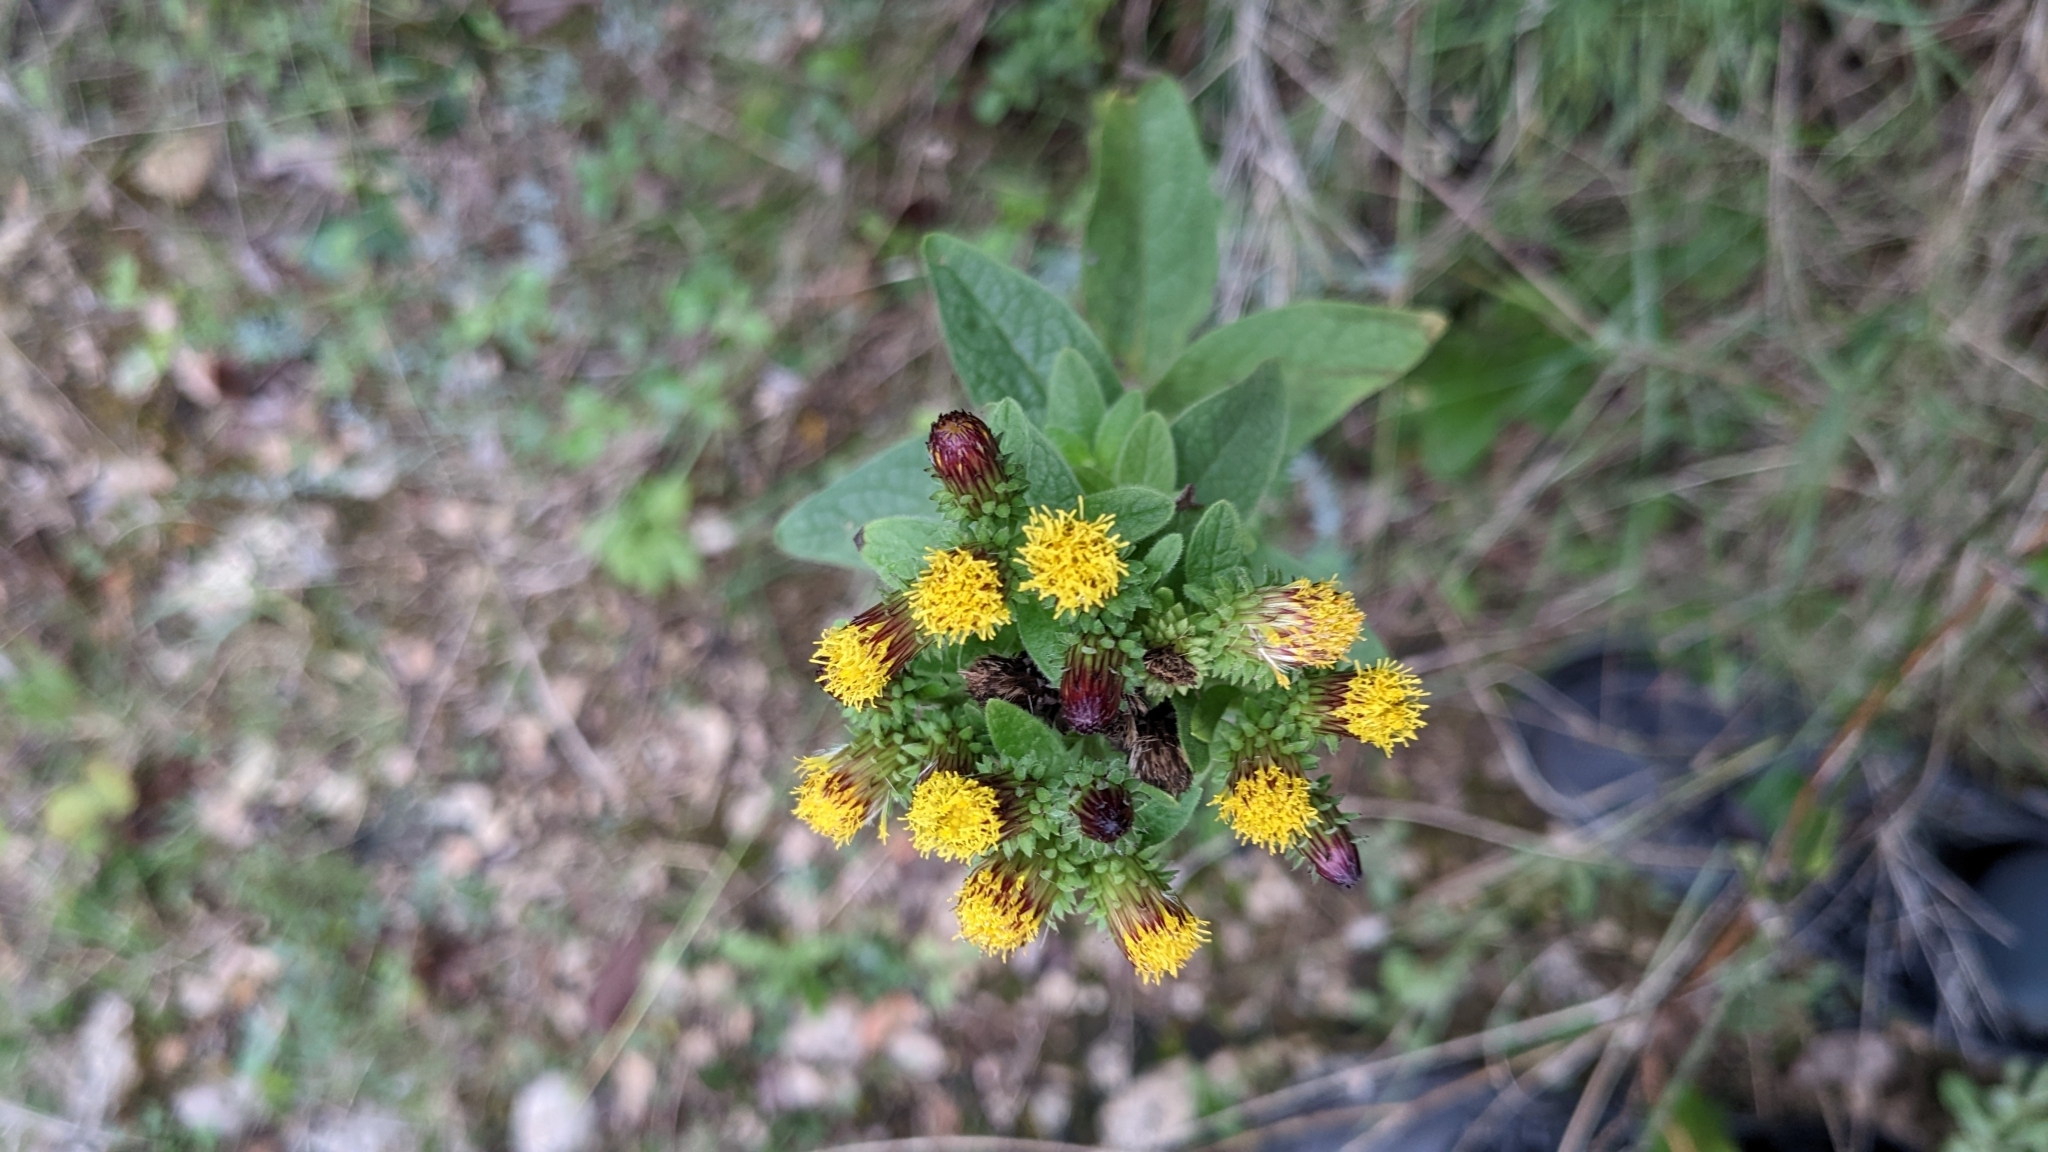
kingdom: Plantae
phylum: Tracheophyta
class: Magnoliopsida
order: Asterales
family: Asteraceae
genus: Pentanema
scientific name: Pentanema squarrosum
